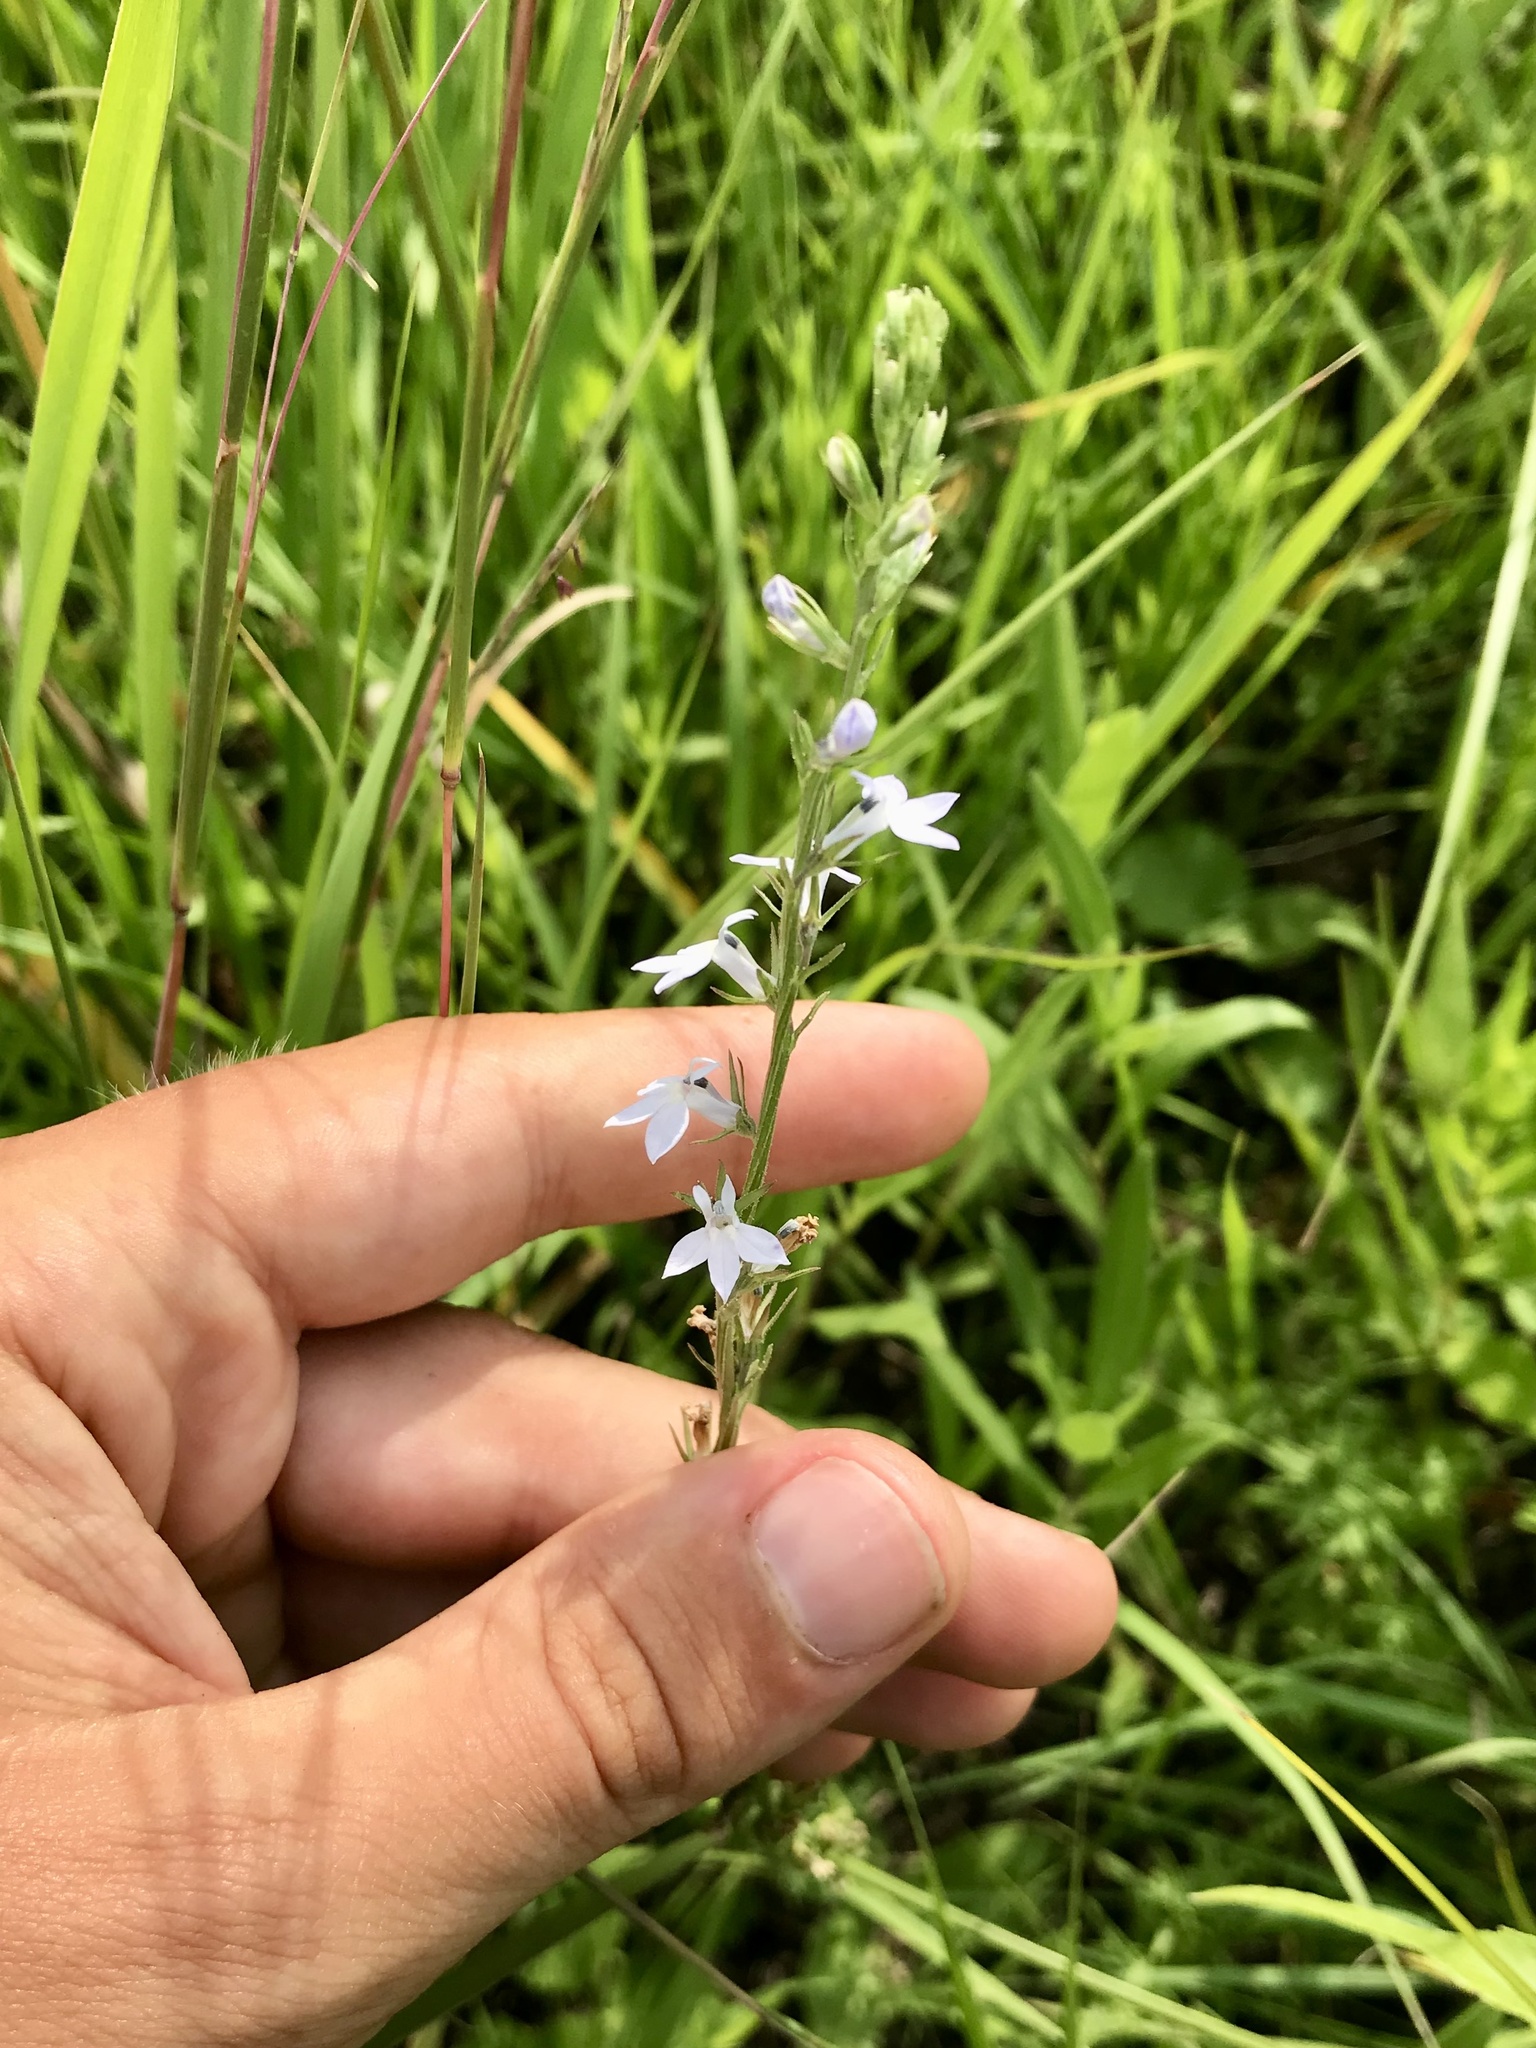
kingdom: Plantae
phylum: Tracheophyta
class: Magnoliopsida
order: Asterales
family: Campanulaceae
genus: Lobelia
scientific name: Lobelia spicata
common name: Pale-spike lobelia
